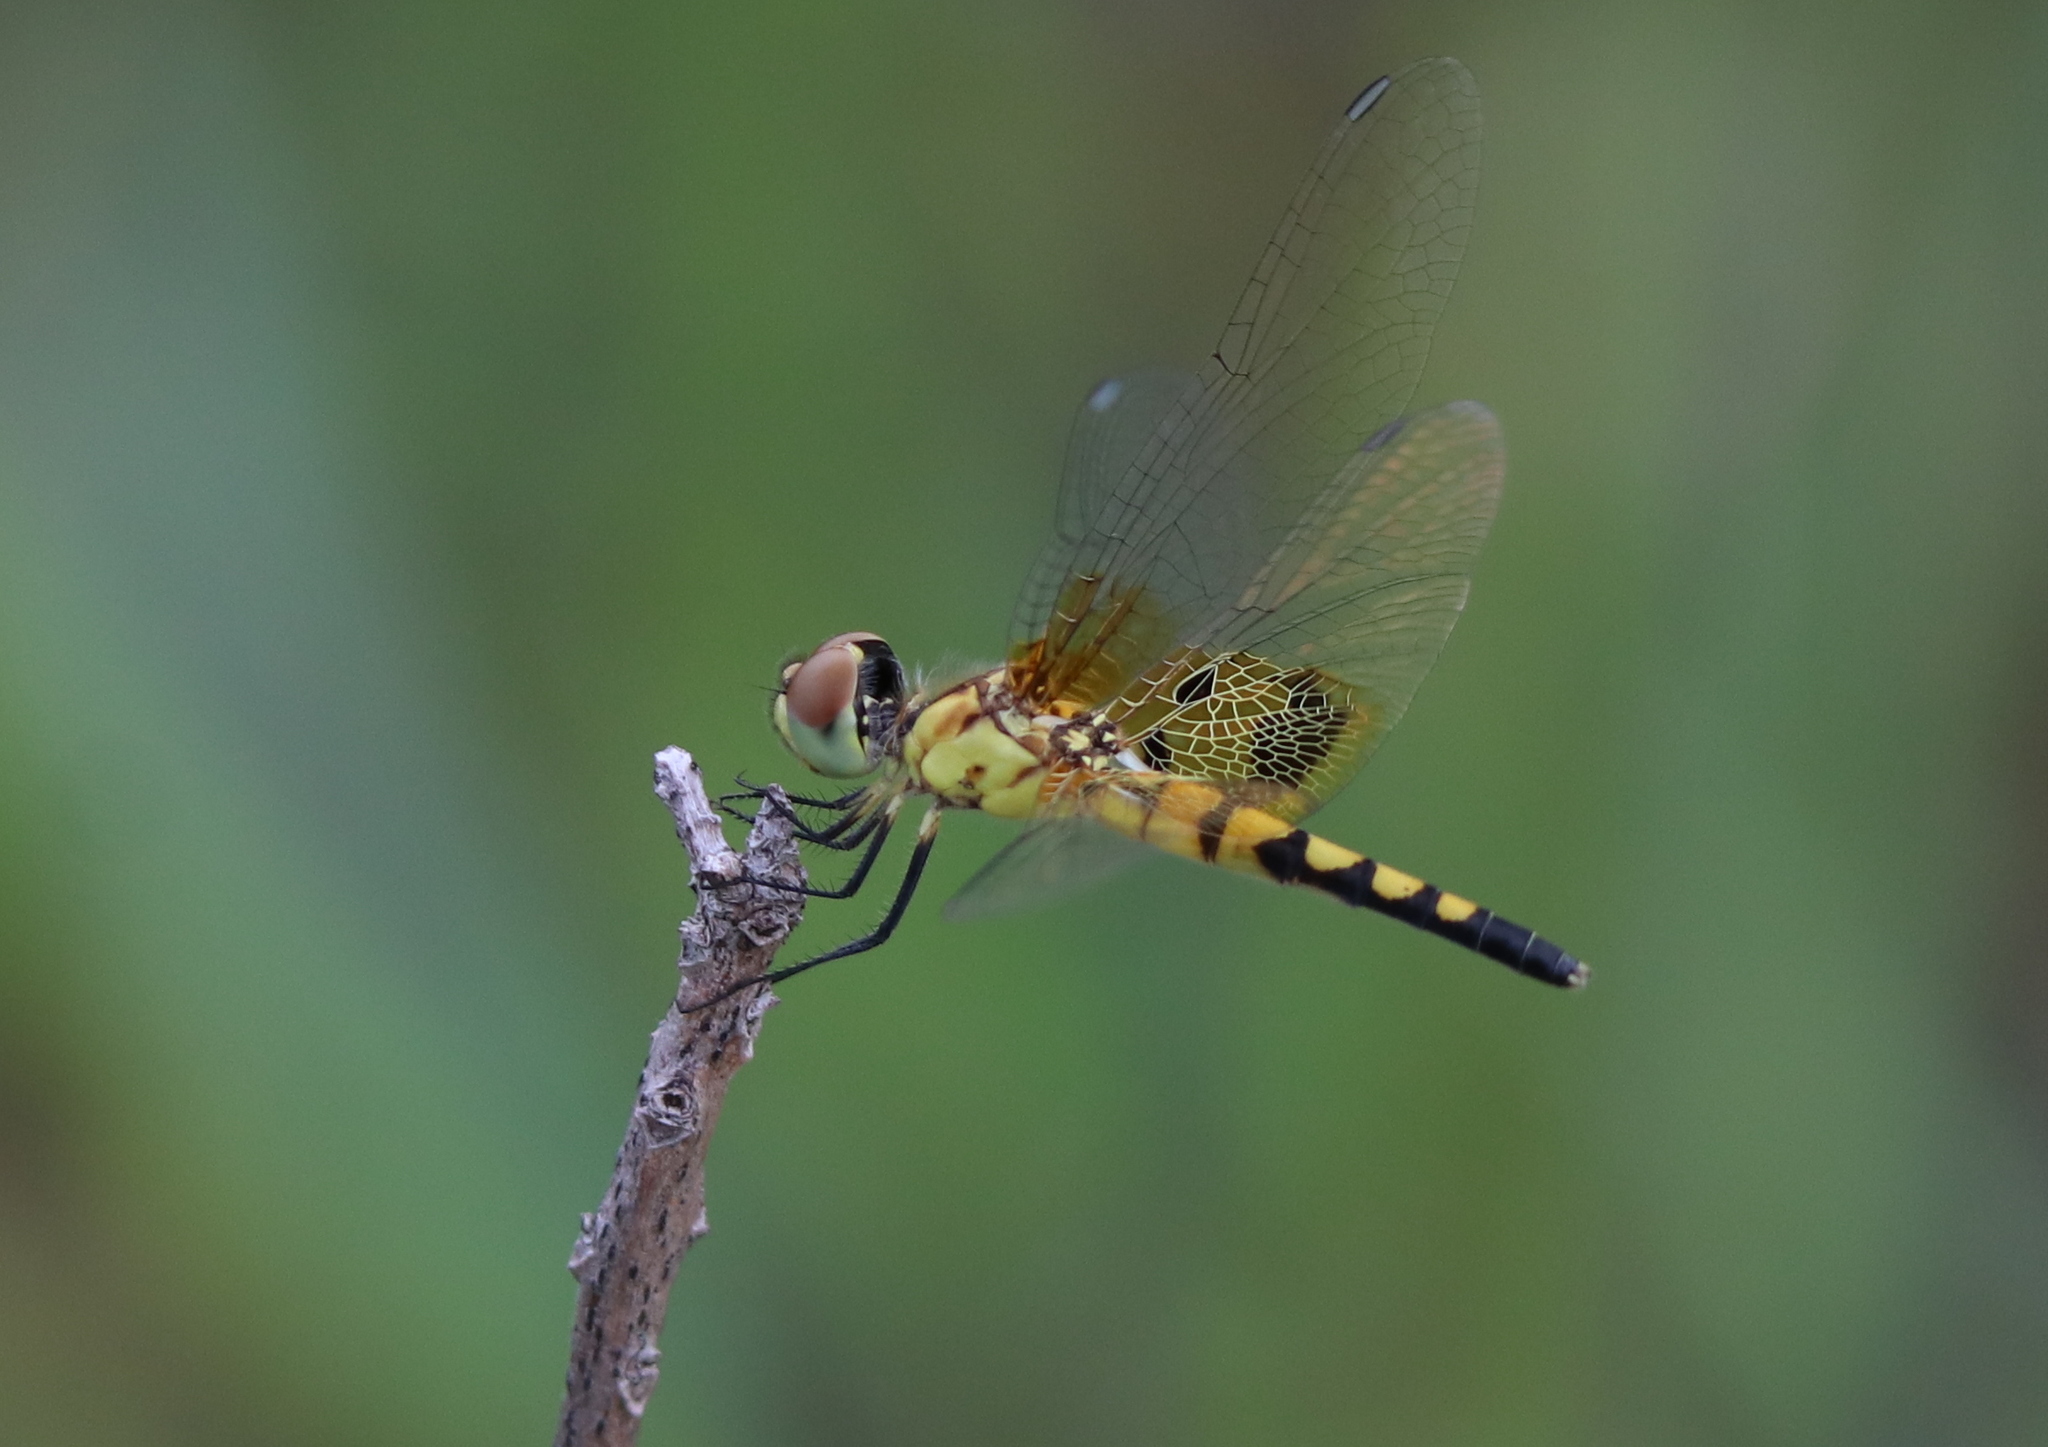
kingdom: Animalia
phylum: Arthropoda
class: Insecta
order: Odonata
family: Libellulidae
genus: Celithemis
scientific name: Celithemis amanda
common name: Amanda's pennant
